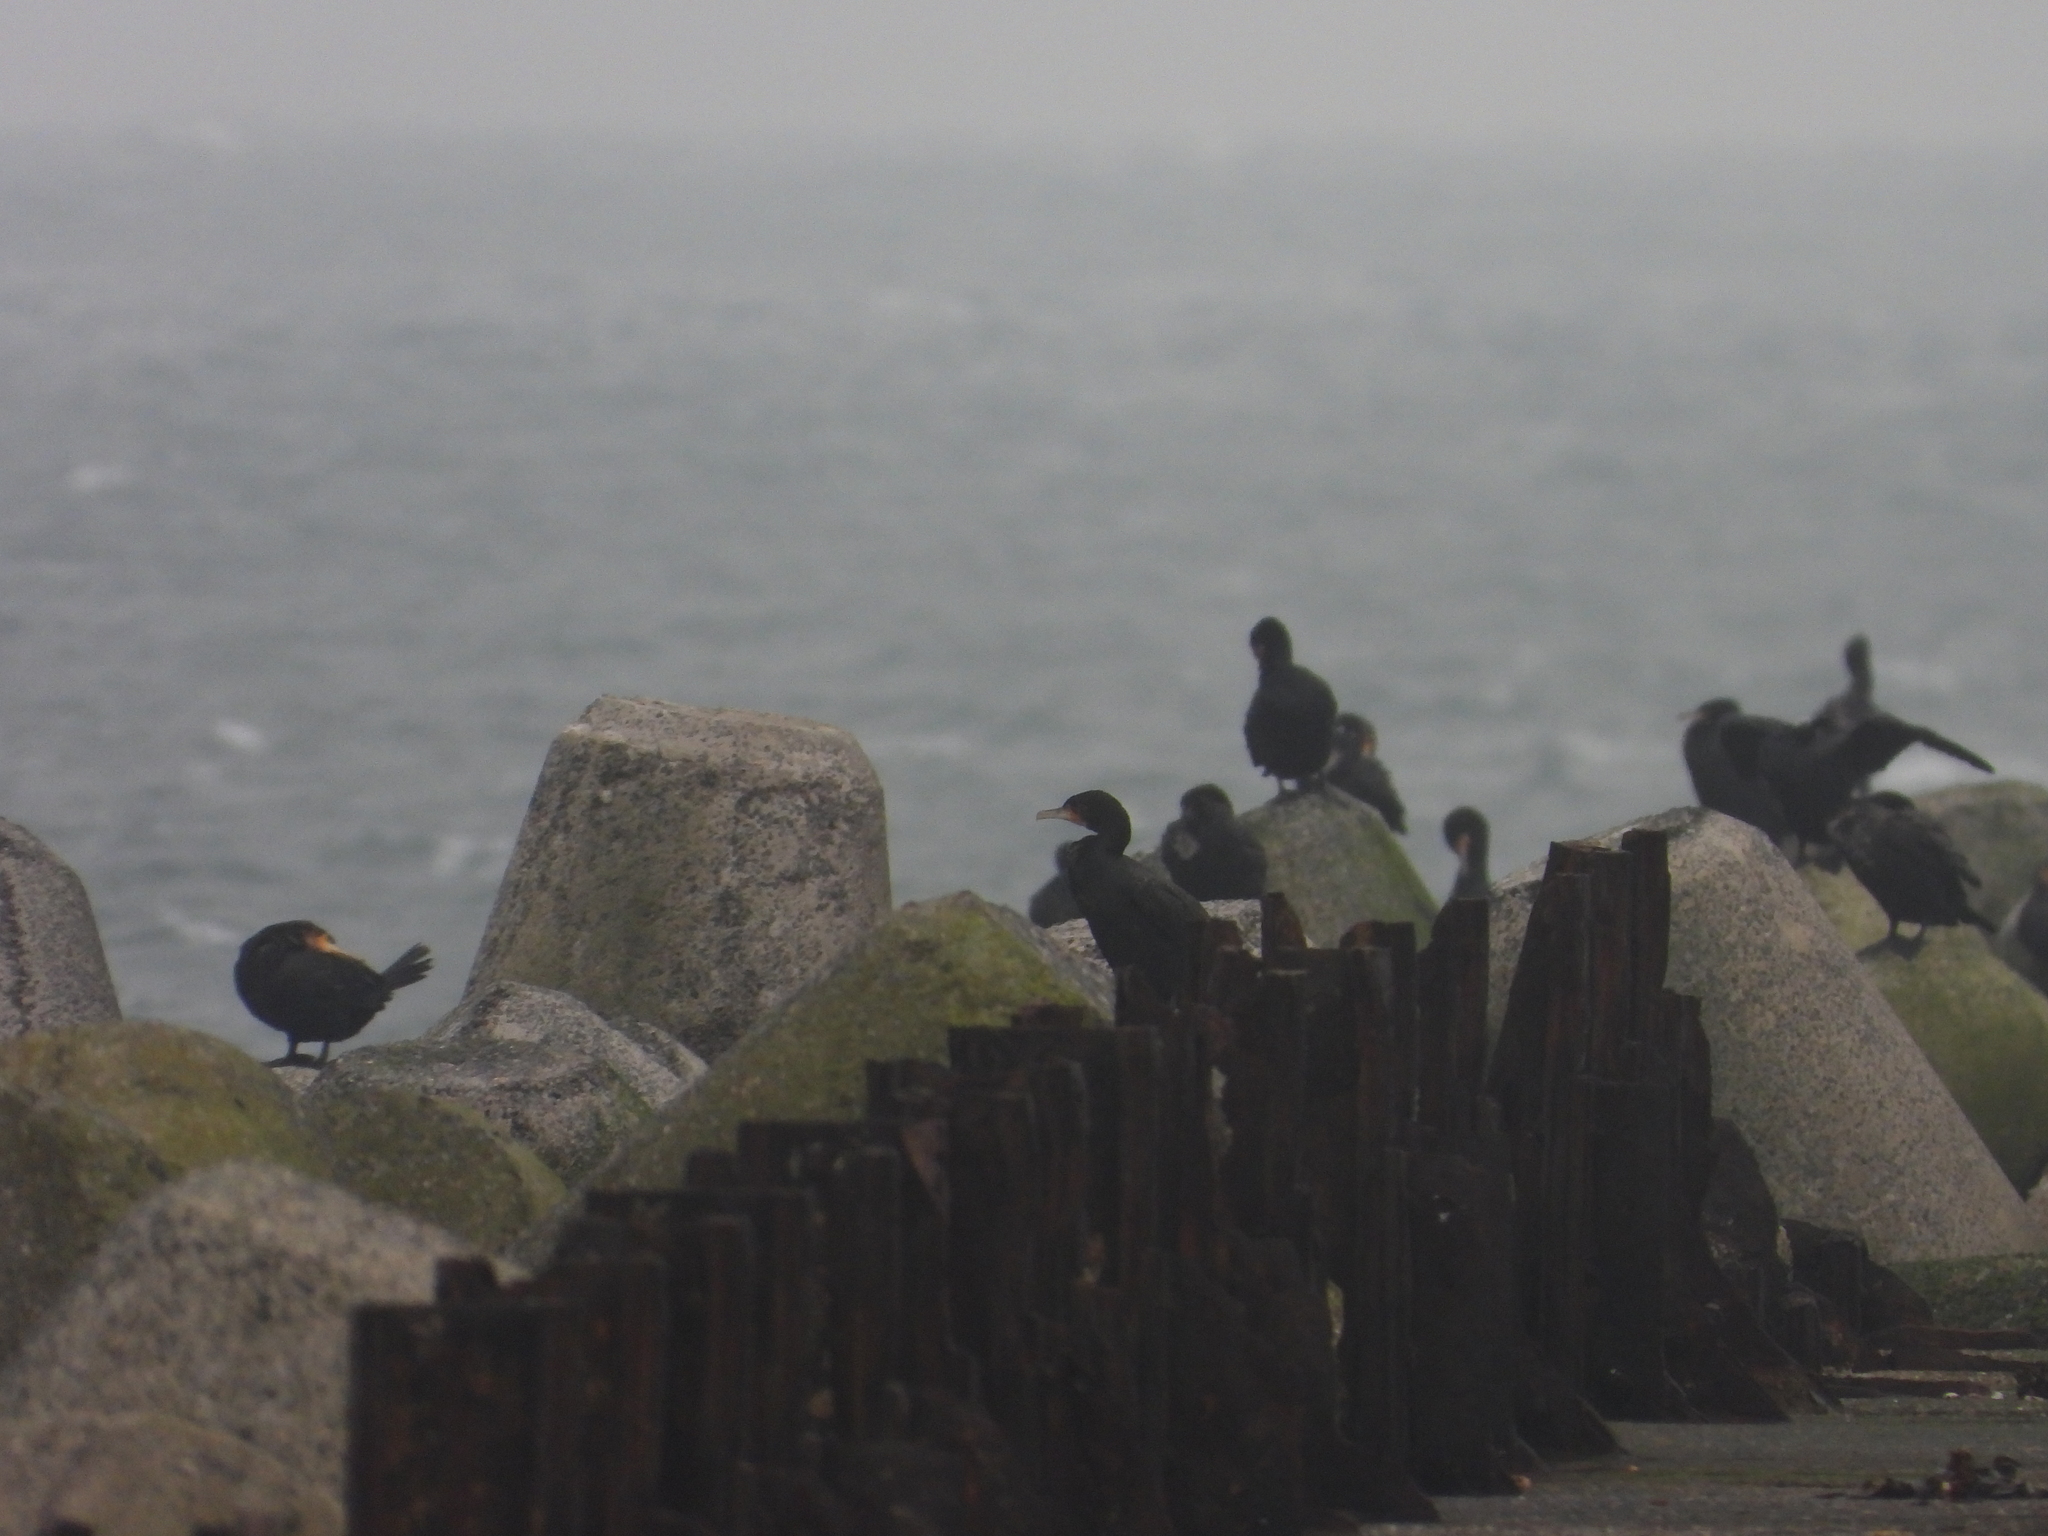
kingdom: Animalia
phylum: Chordata
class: Aves
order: Suliformes
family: Phalacrocoracidae
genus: Phalacrocorax
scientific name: Phalacrocorax carbo
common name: Great cormorant
